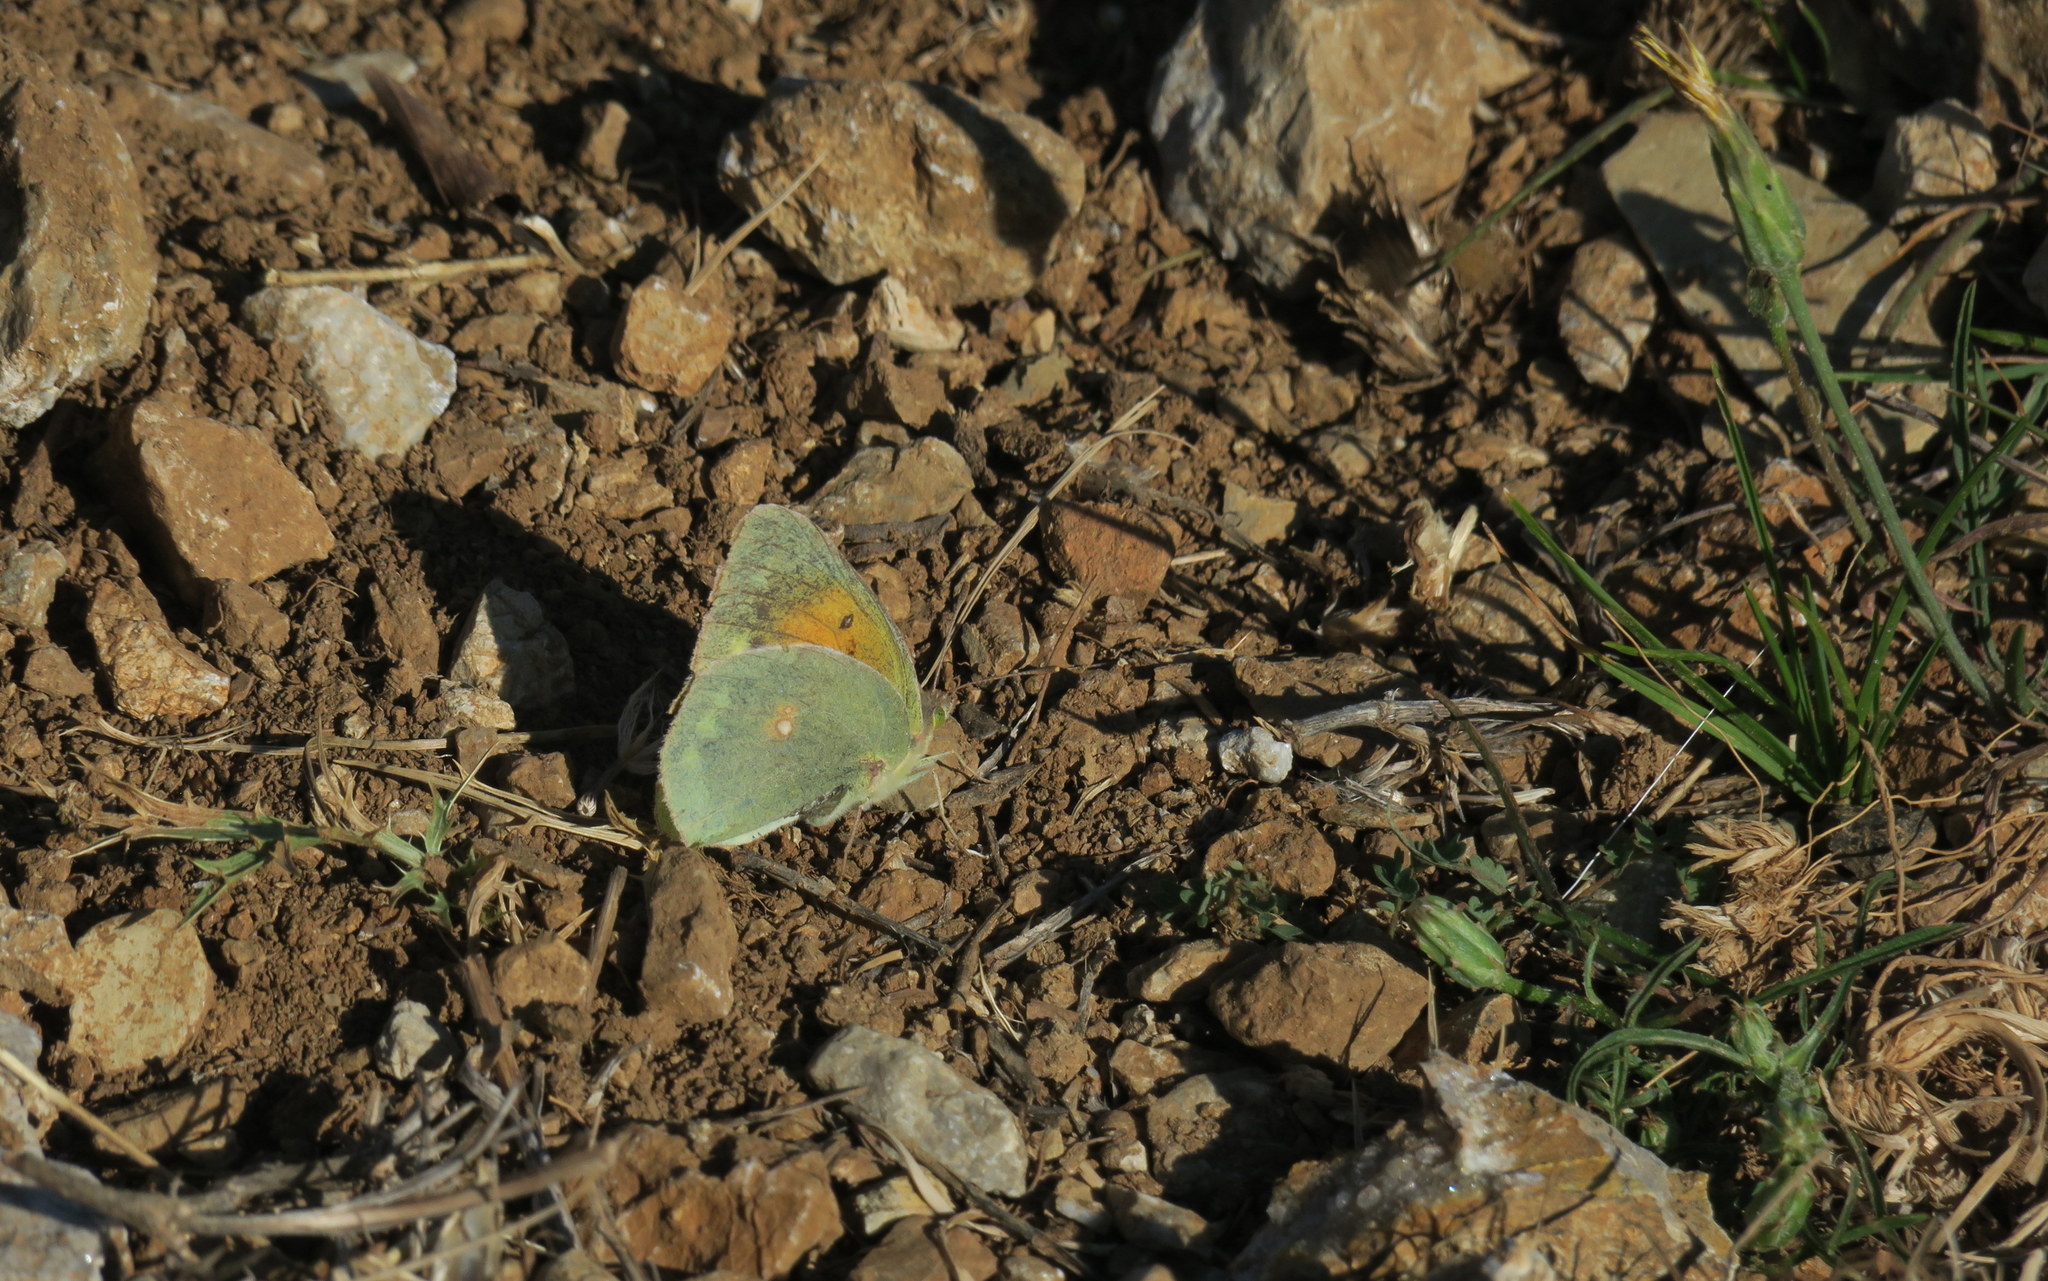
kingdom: Animalia
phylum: Arthropoda
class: Insecta
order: Lepidoptera
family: Pieridae
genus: Colias
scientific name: Colias aurorina
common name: Greek clouded yellow
